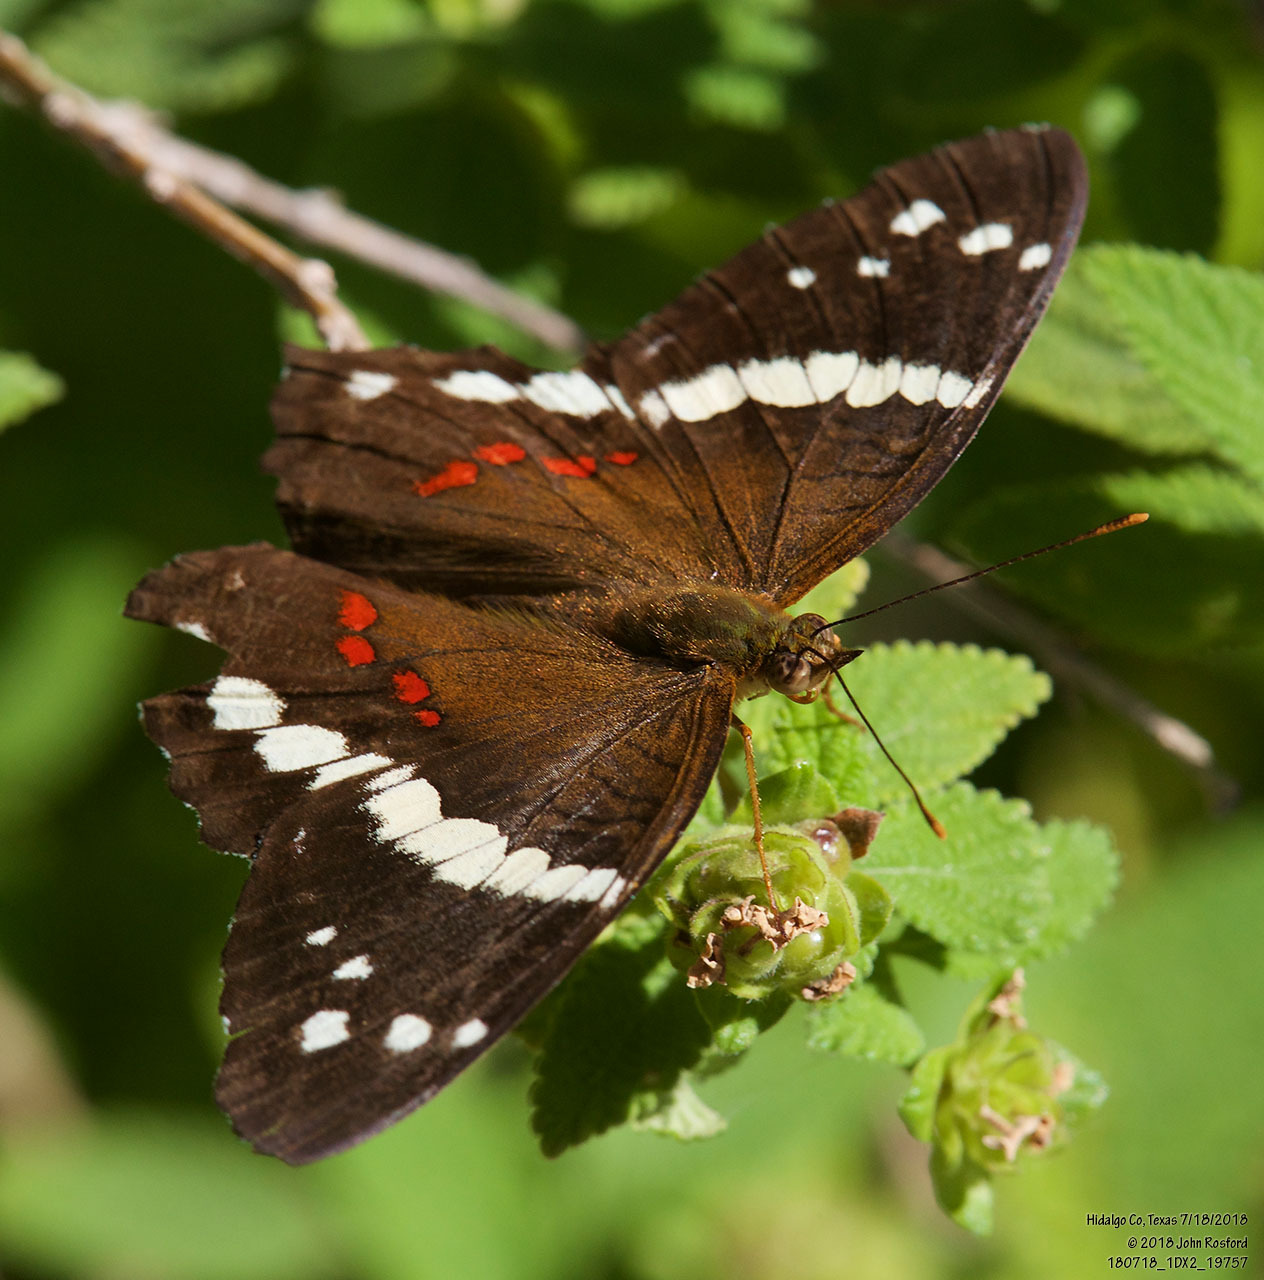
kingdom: Animalia
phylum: Arthropoda
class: Insecta
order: Lepidoptera
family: Nymphalidae
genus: Anartia
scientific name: Anartia fatima
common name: Banded peacock
